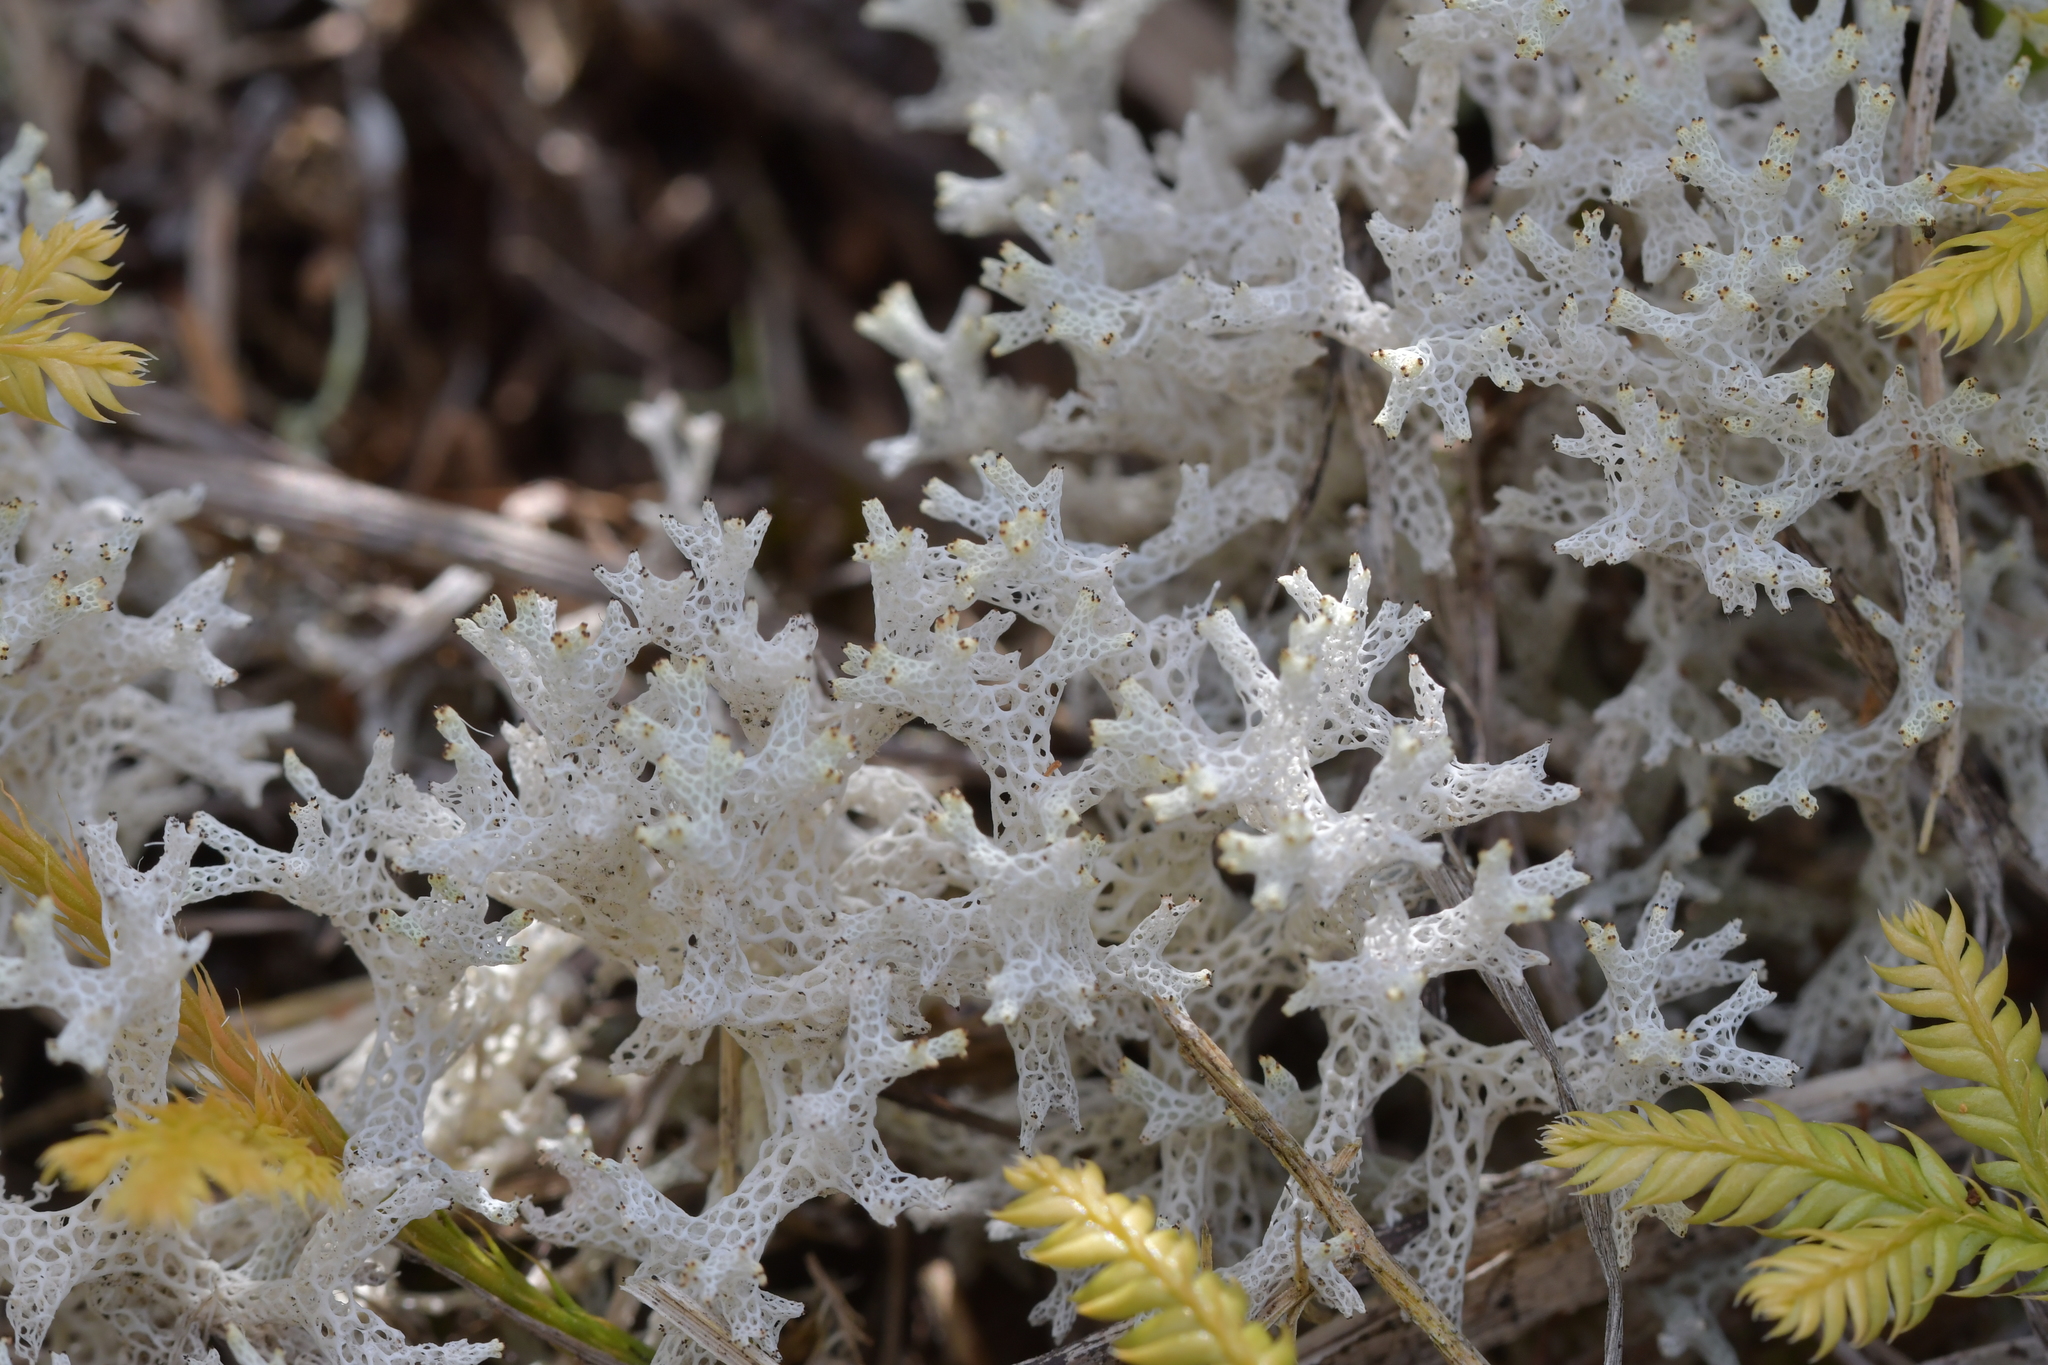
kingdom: Fungi
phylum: Ascomycota
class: Lecanoromycetes
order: Lecanorales
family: Cladoniaceae
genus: Pulchrocladia
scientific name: Pulchrocladia retipora
